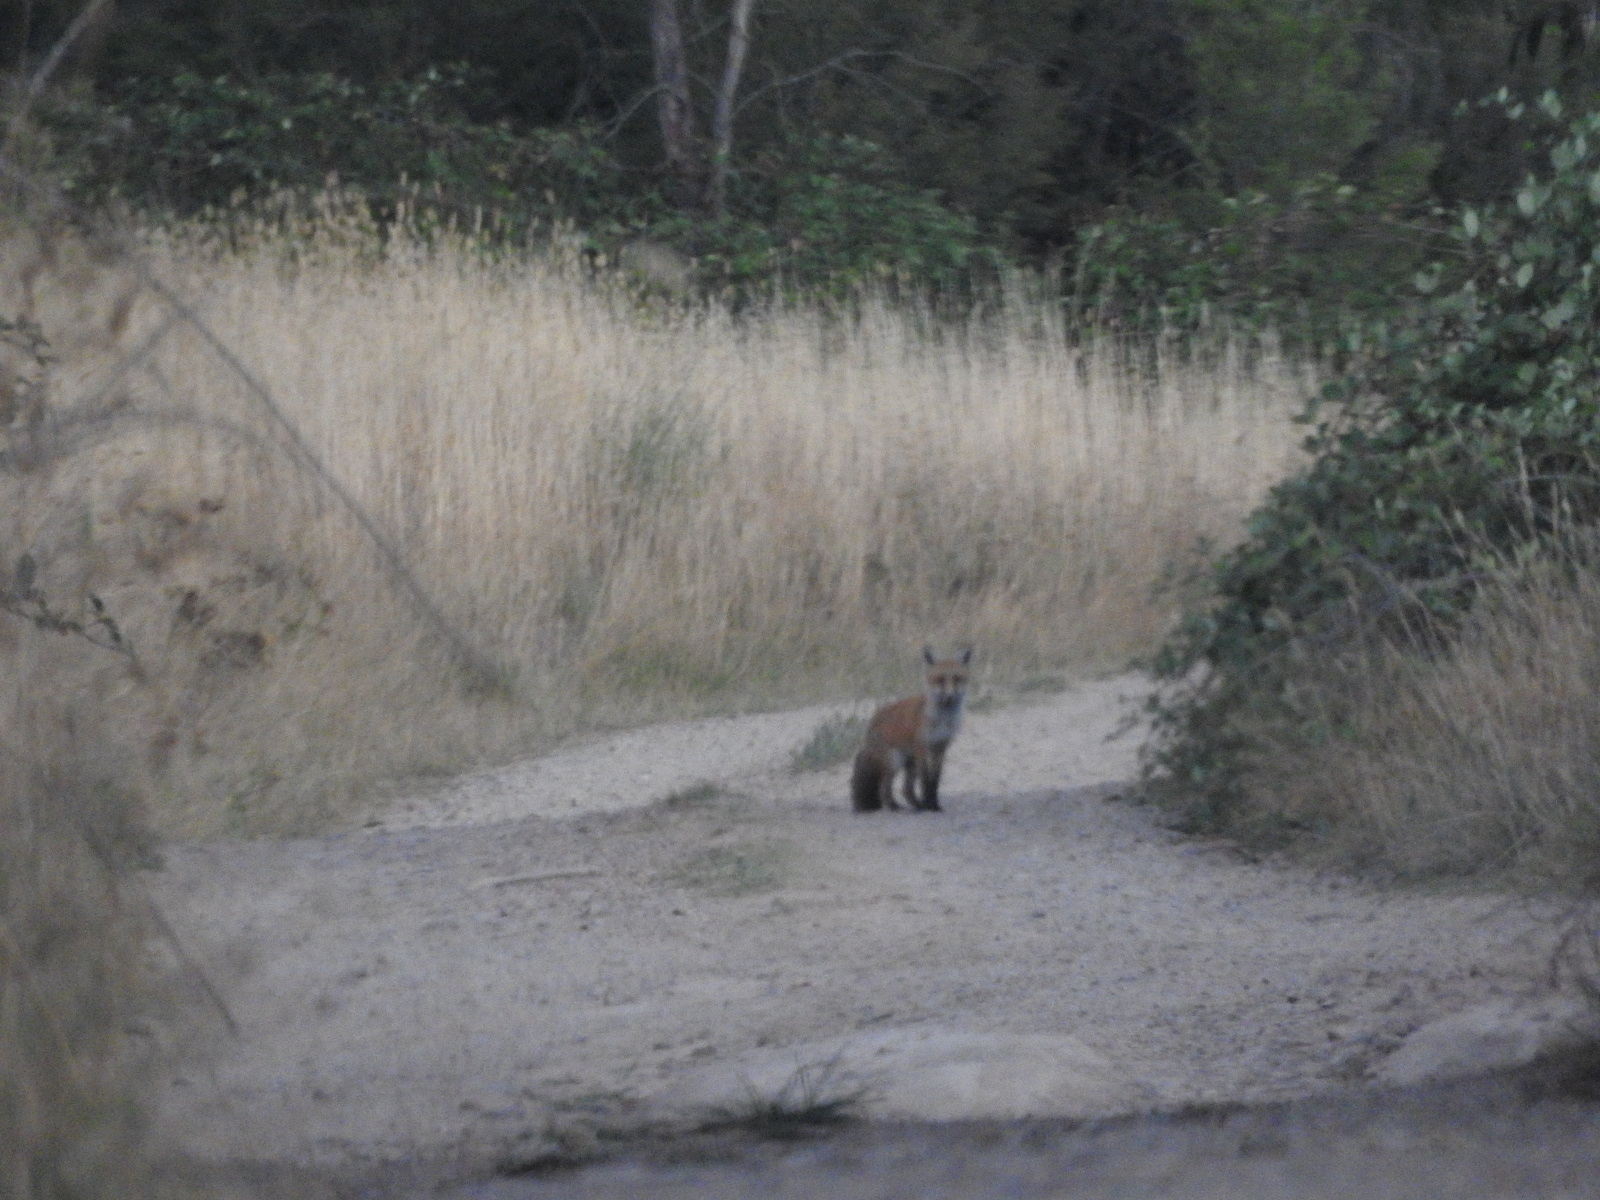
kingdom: Animalia
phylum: Chordata
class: Mammalia
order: Carnivora
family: Canidae
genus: Vulpes
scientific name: Vulpes vulpes
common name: Red fox
